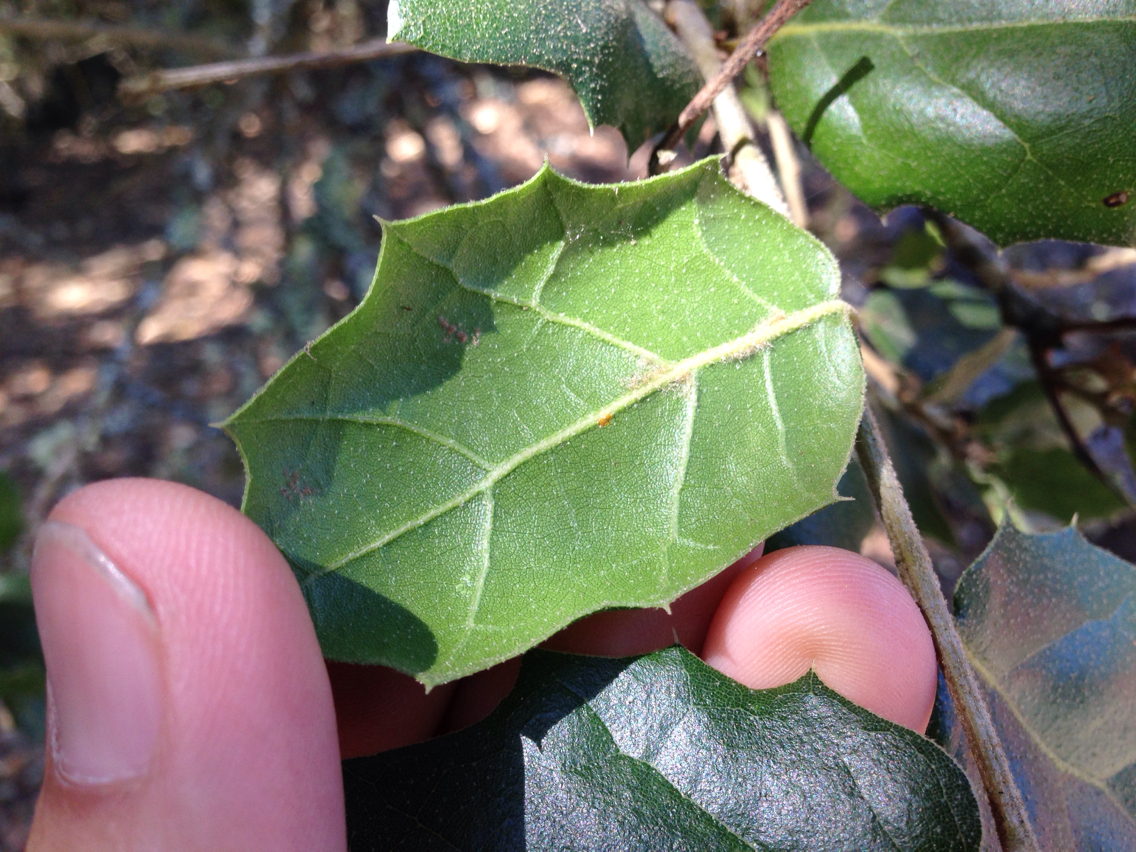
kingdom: Plantae
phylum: Tracheophyta
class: Magnoliopsida
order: Fagales
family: Fagaceae
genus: Quercus
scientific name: Quercus agrifolia
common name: California live oak
